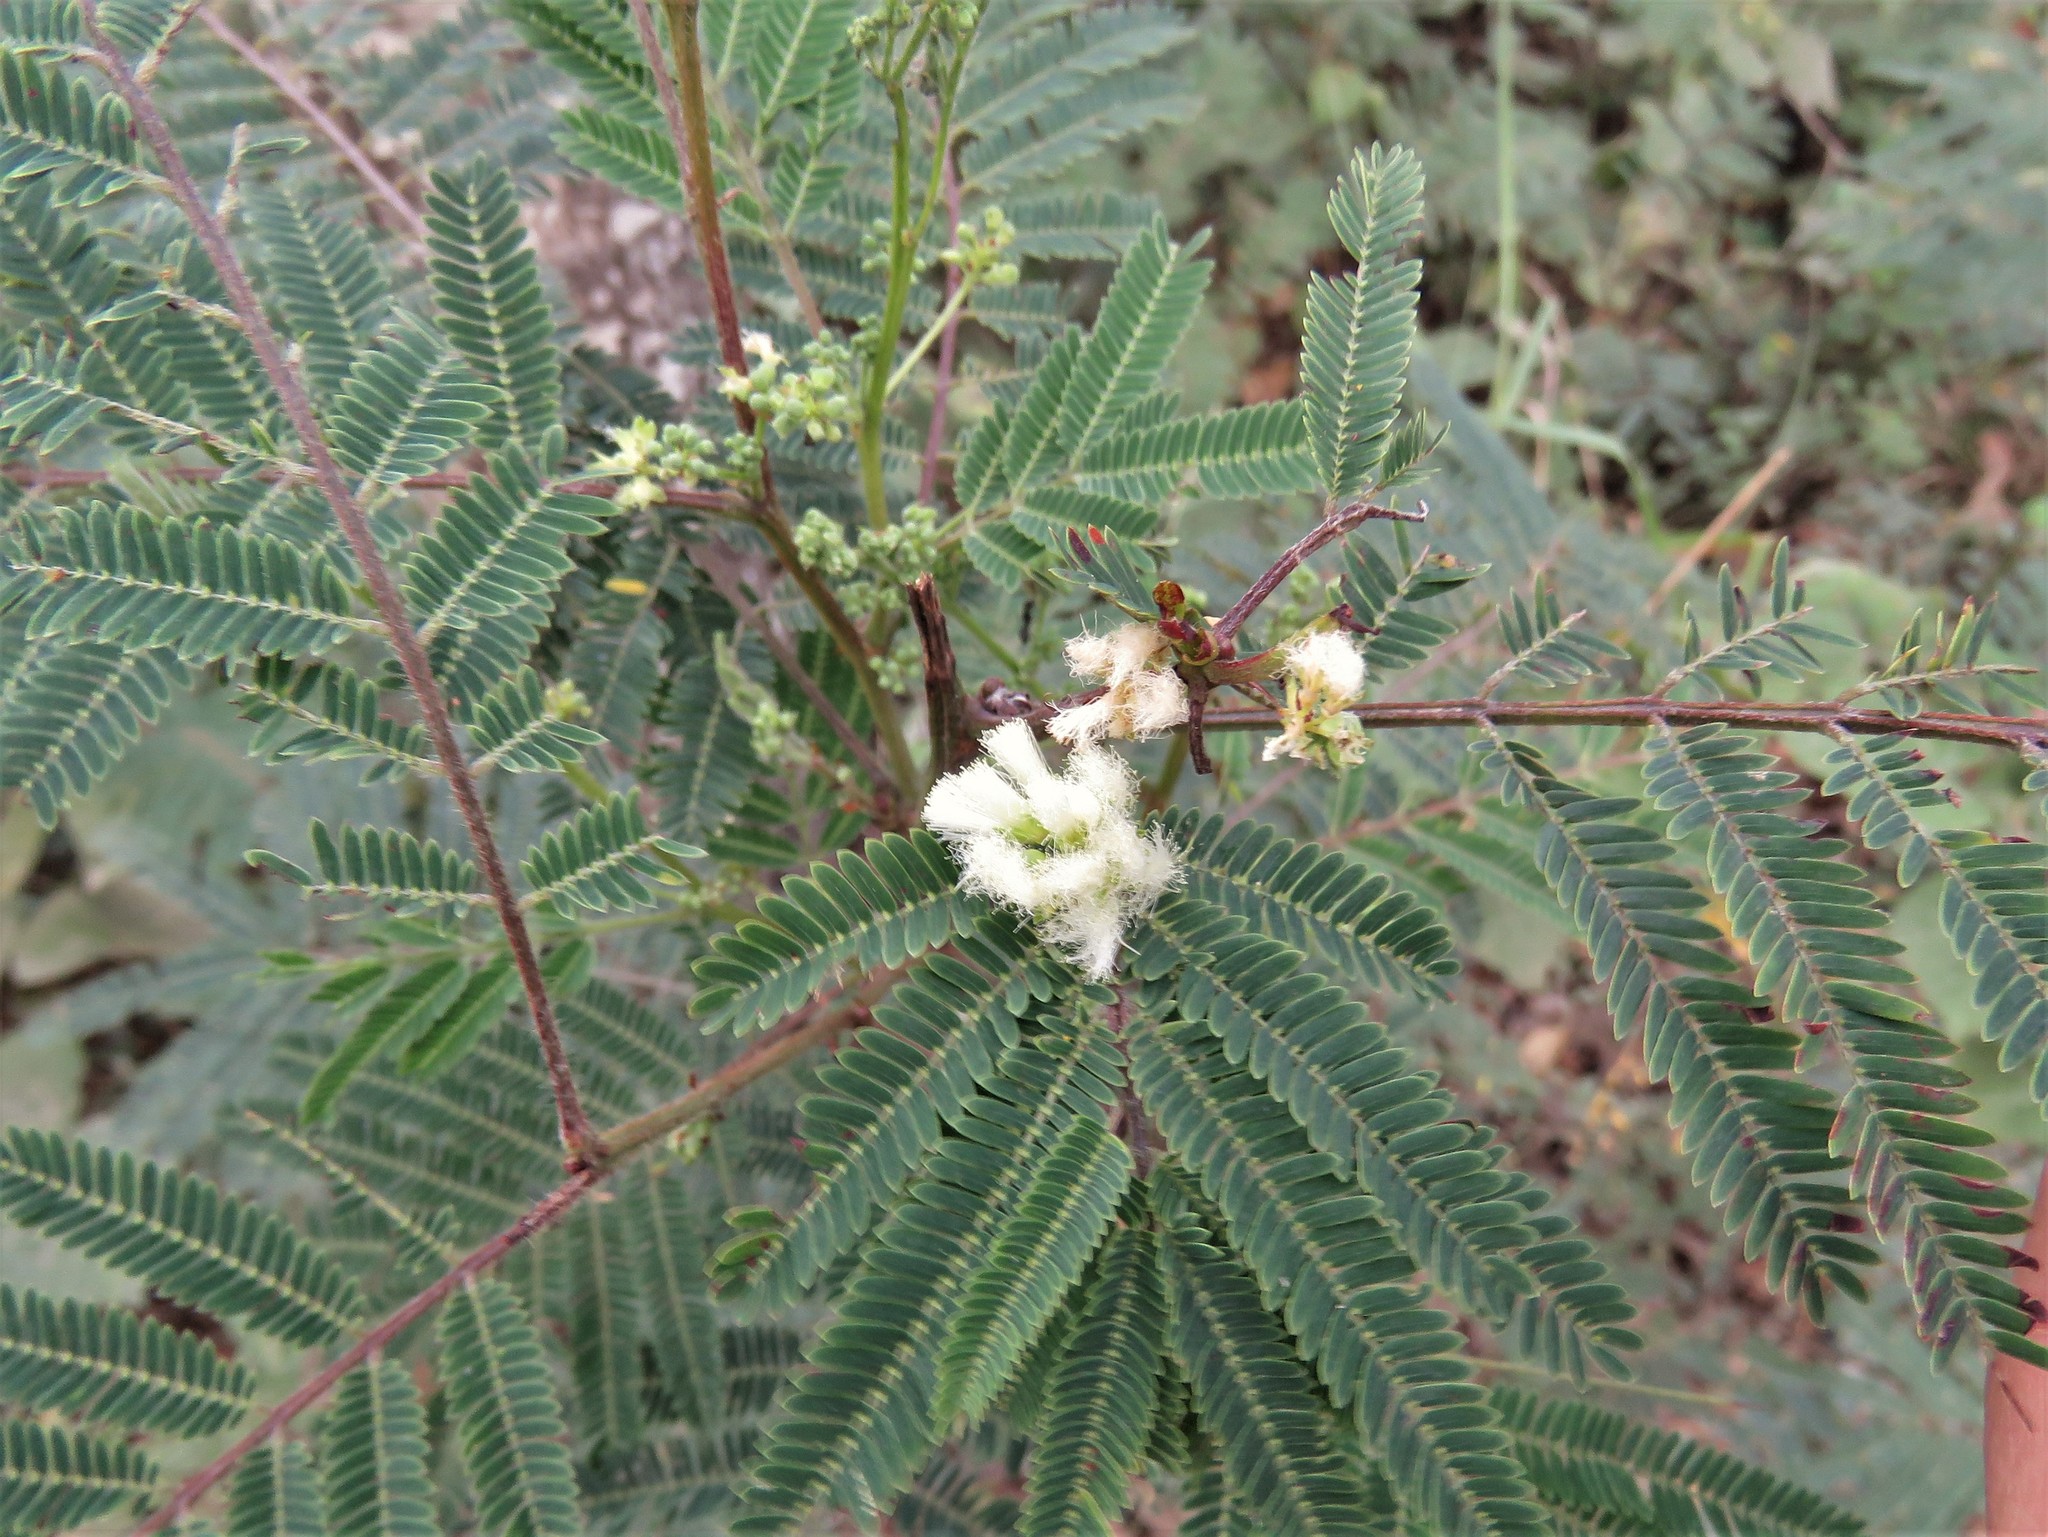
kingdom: Plantae
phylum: Tracheophyta
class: Magnoliopsida
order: Fabales
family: Fabaceae
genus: Acaciella
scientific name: Acaciella angustissima
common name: Prairie acacia
